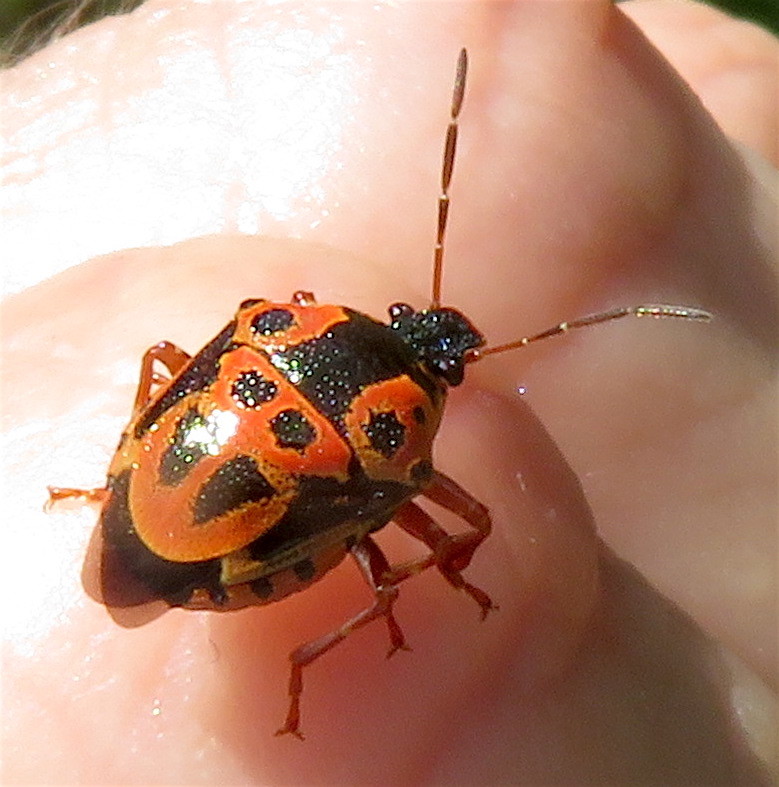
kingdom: Animalia
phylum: Arthropoda
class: Insecta
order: Hemiptera
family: Pentatomidae
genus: Stiretrus
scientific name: Stiretrus anchorago
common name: Anchor stink bug
